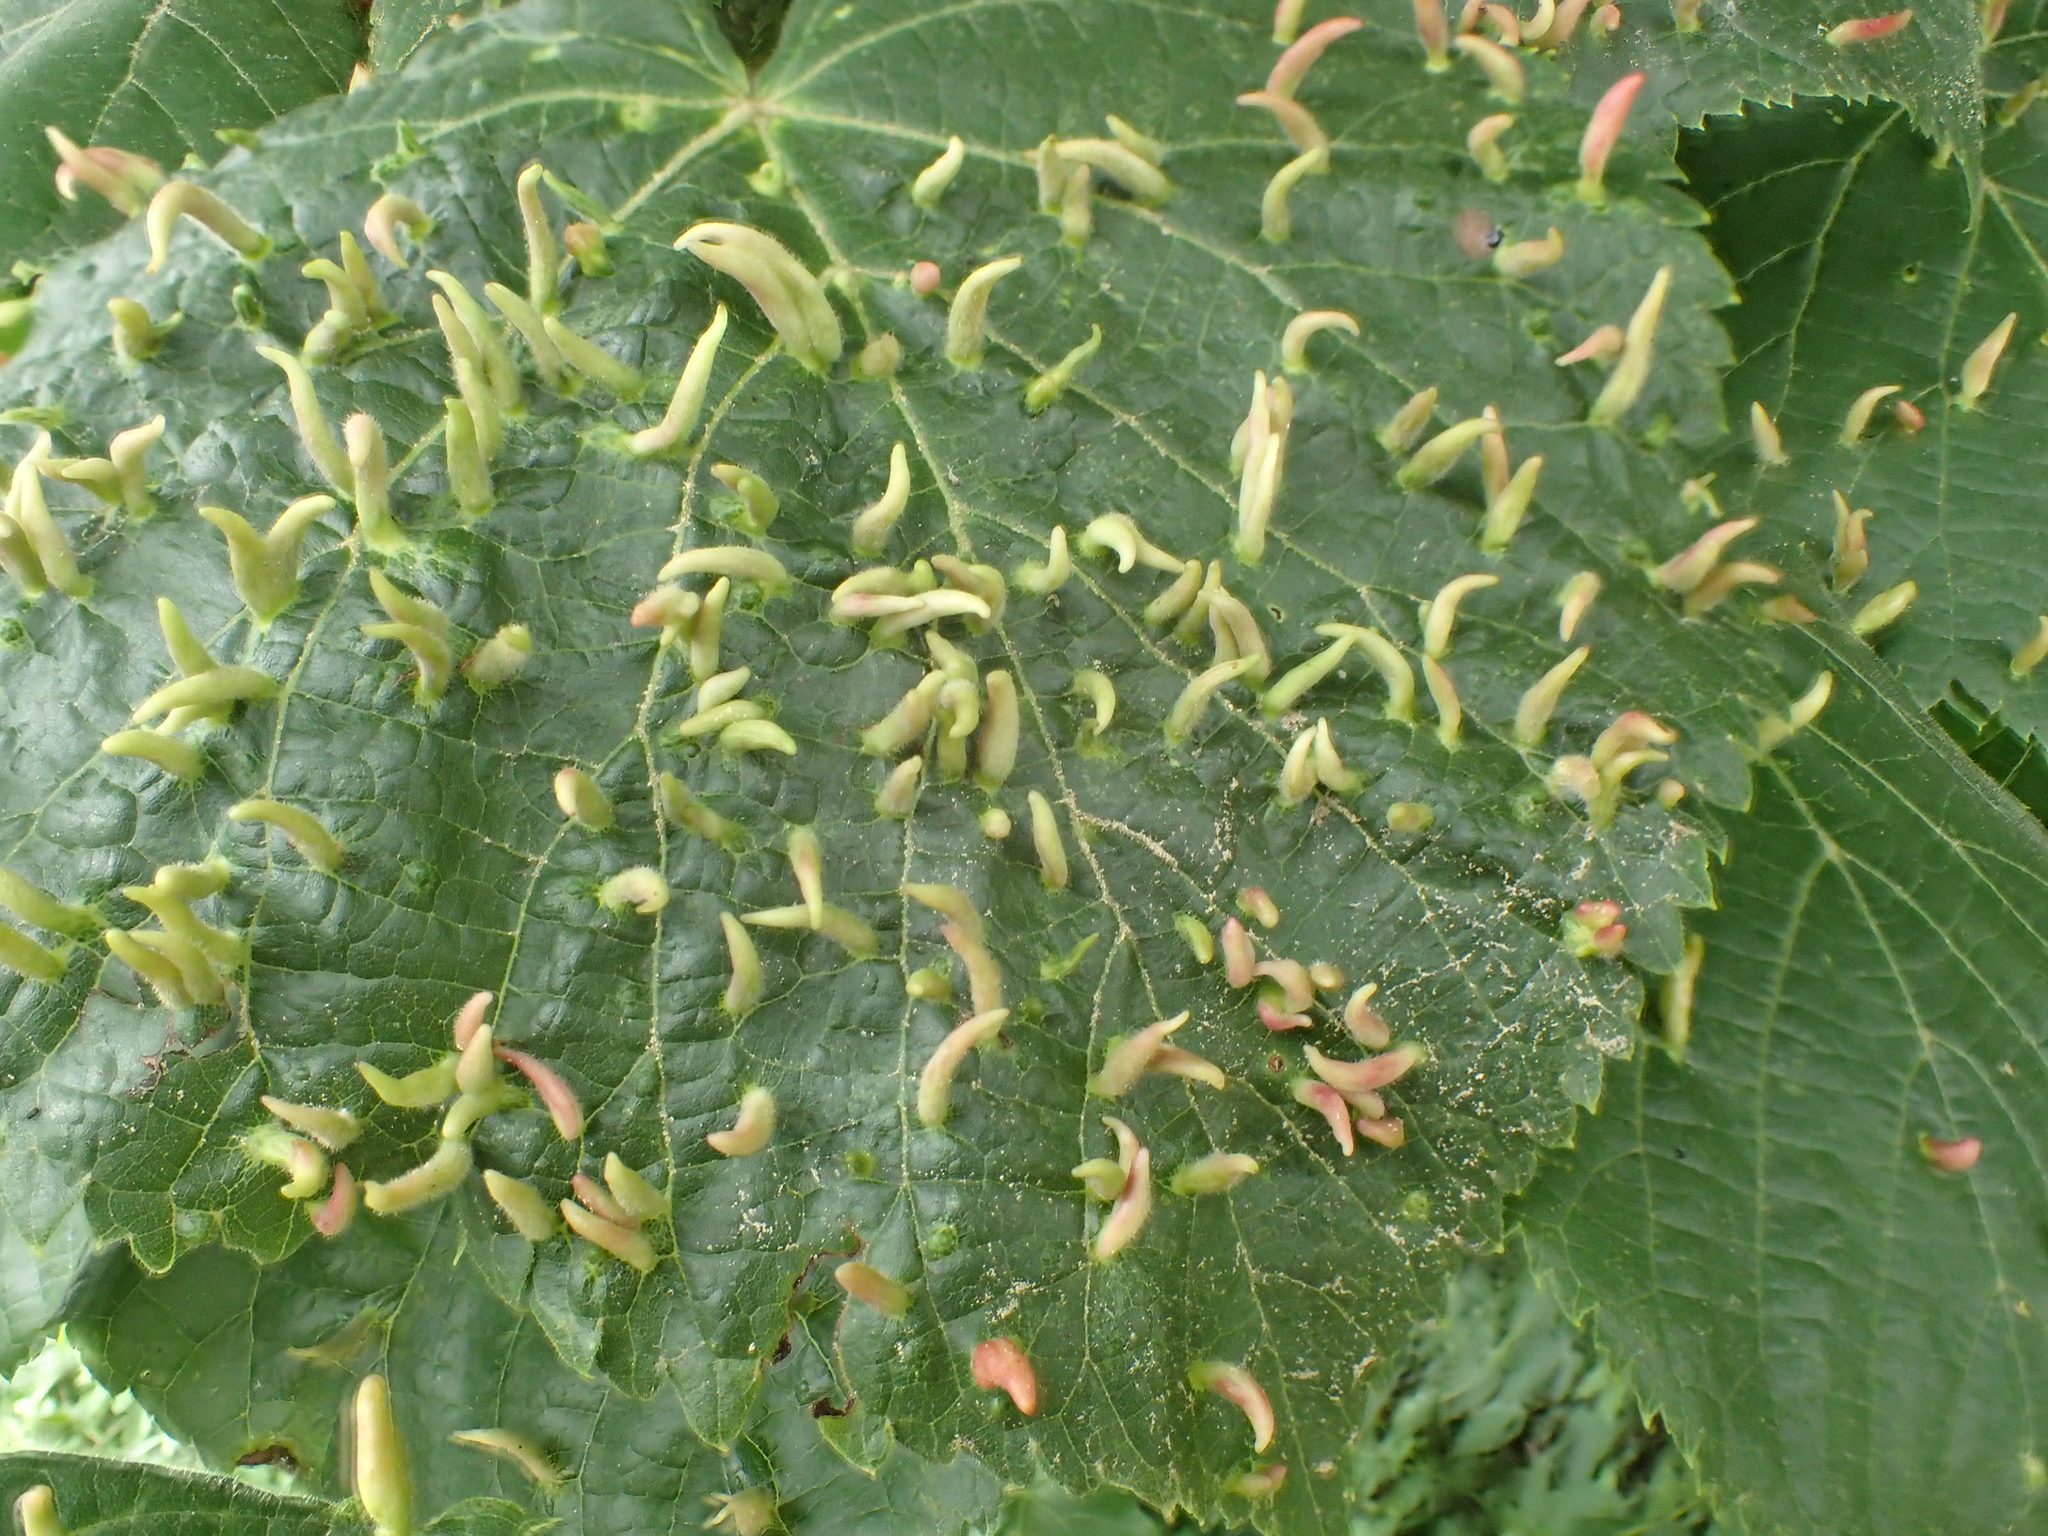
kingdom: Animalia
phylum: Arthropoda
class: Arachnida
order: Trombidiformes
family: Eriophyidae
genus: Eriophyes
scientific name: Eriophyes tiliae
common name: Red nail gall mite
